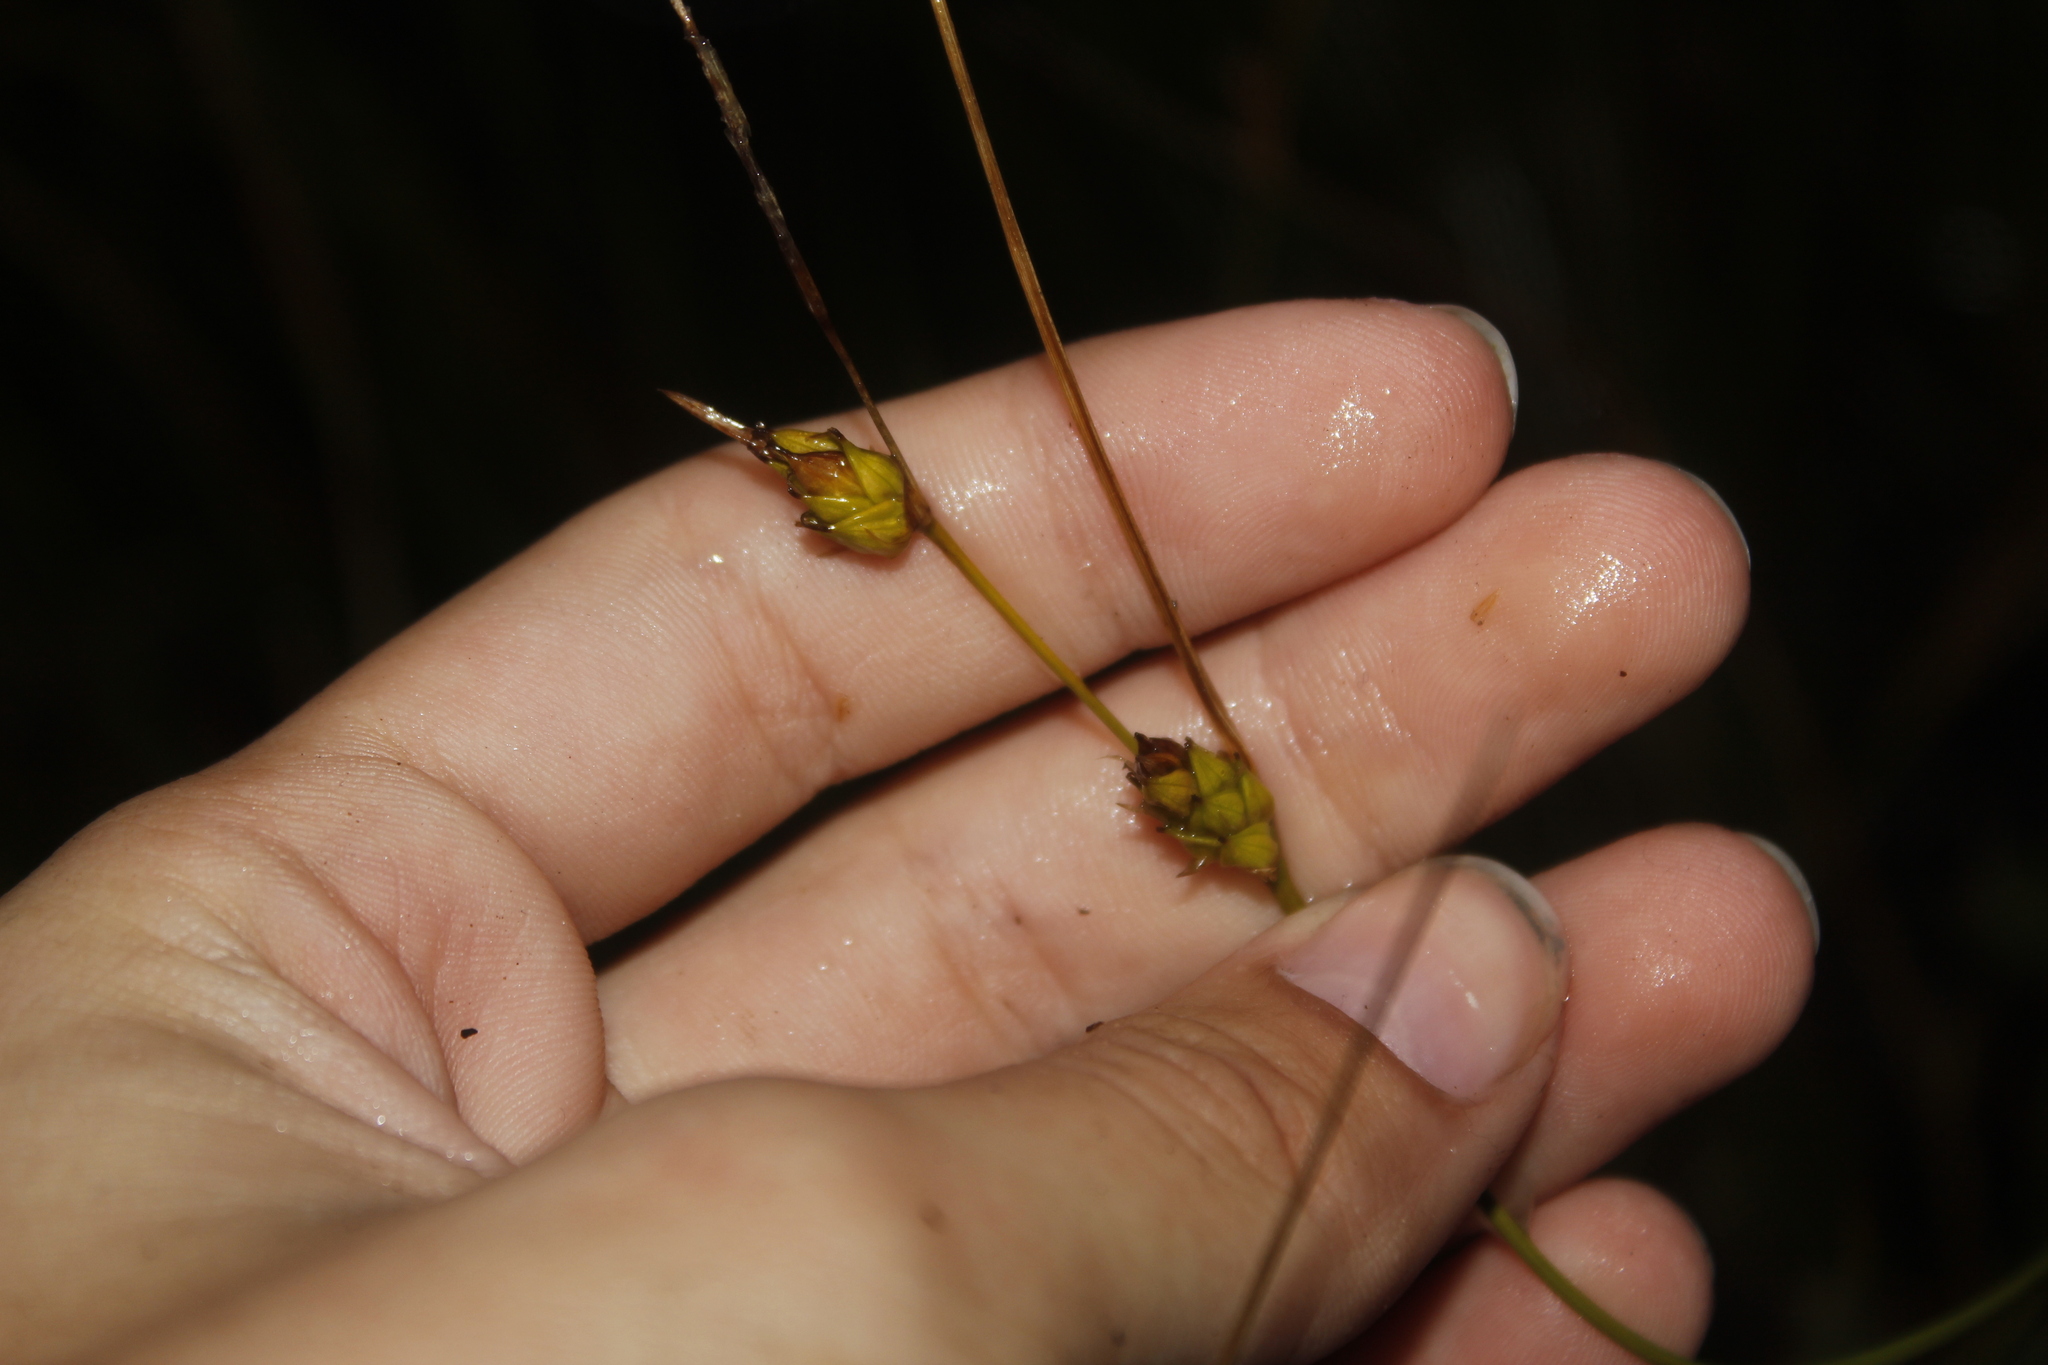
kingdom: Plantae
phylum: Tracheophyta
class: Liliopsida
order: Poales
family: Cyperaceae
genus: Carex
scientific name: Carex oligosperma
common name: Few-seed sedge
